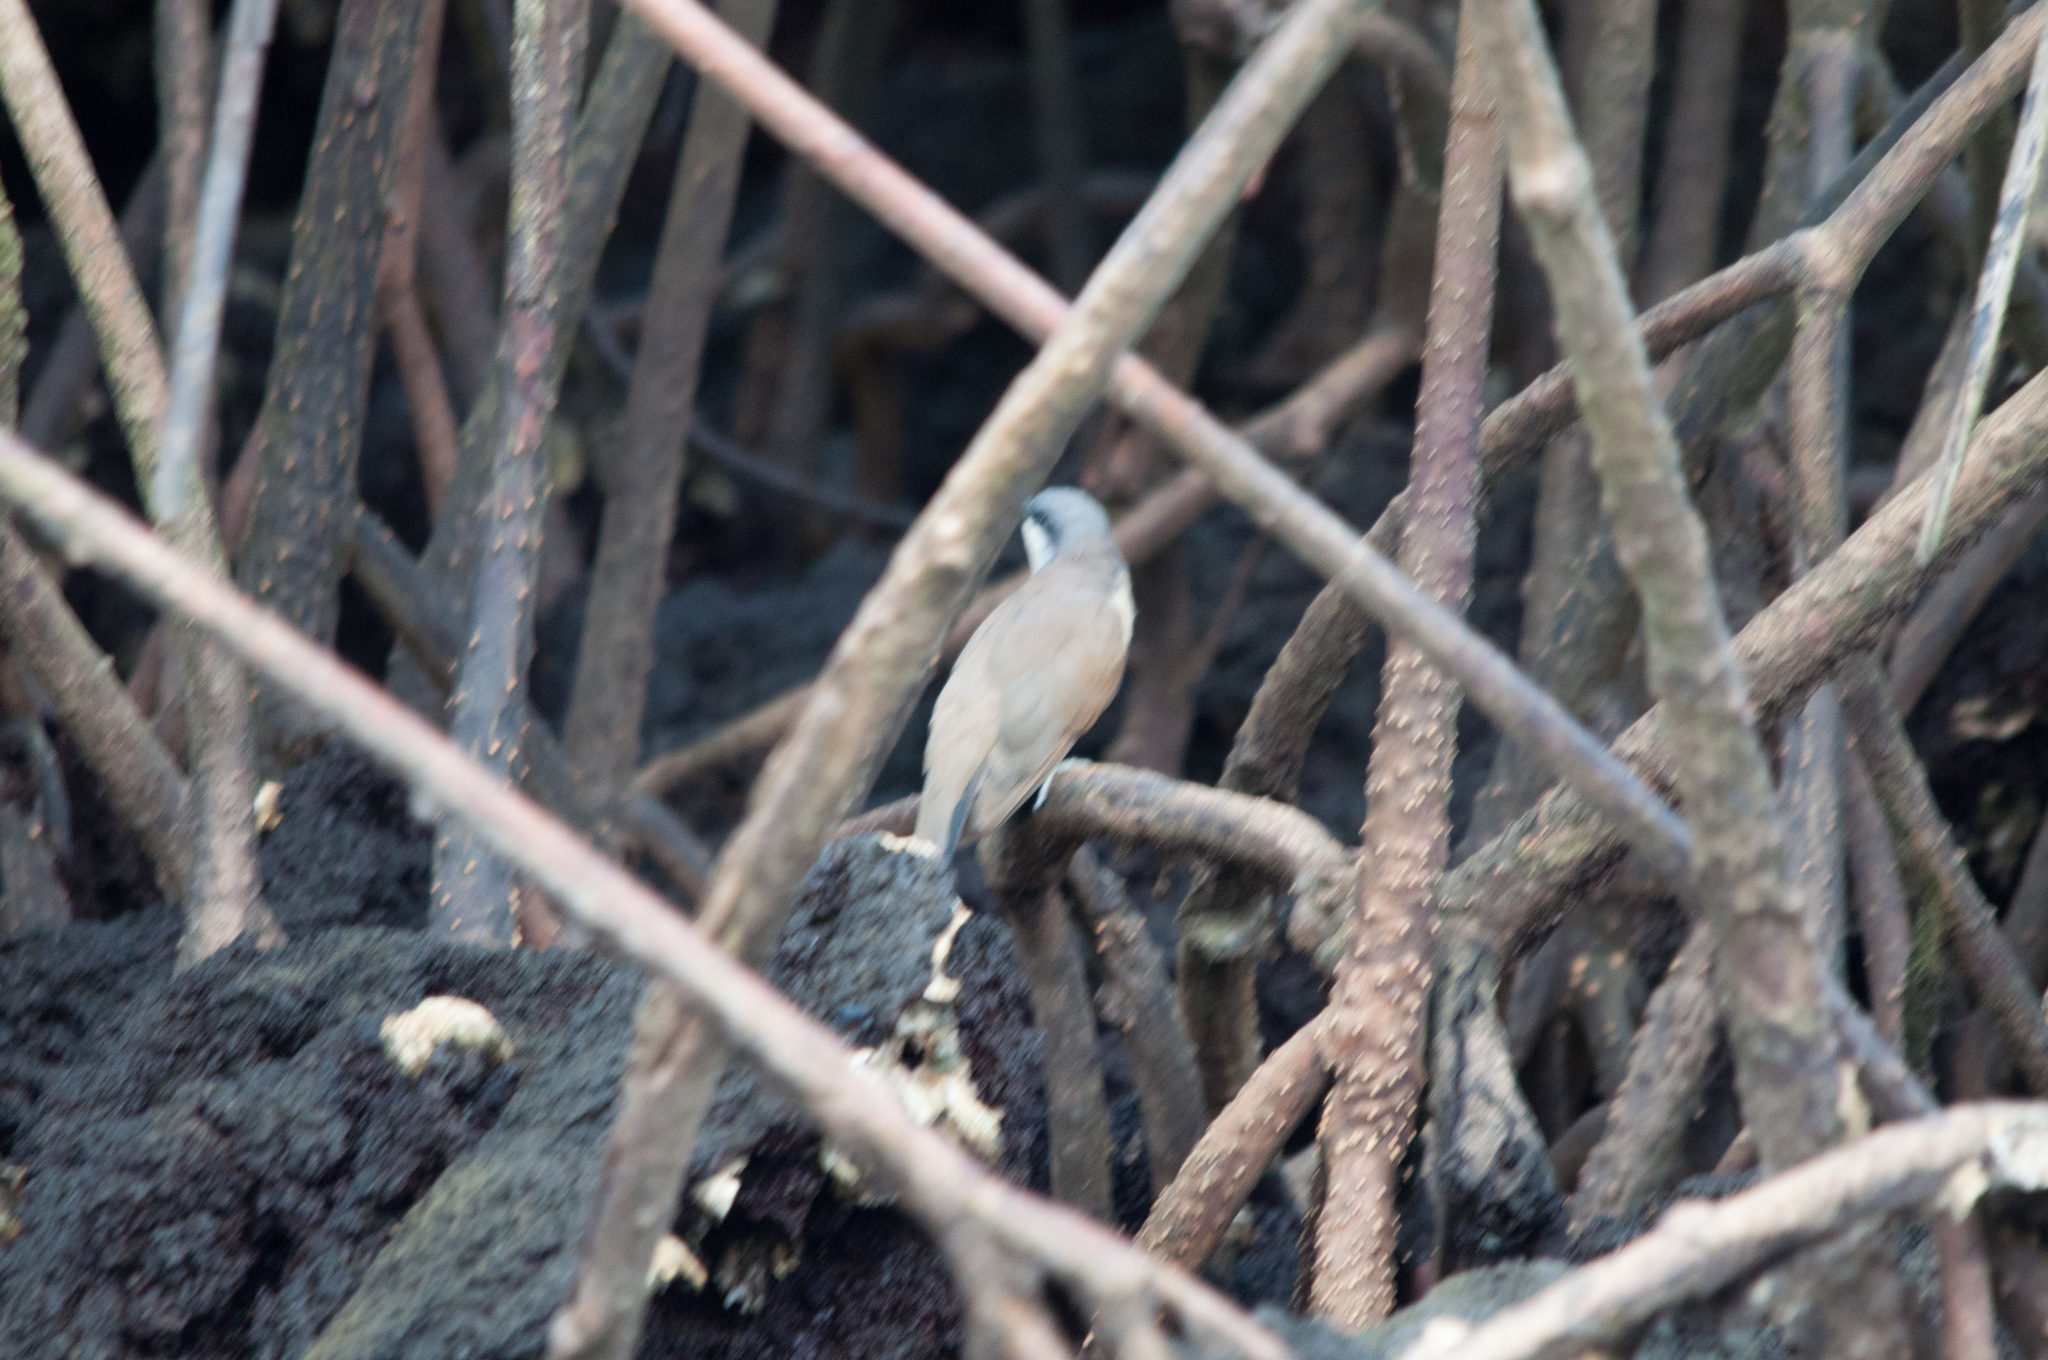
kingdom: Animalia
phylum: Chordata
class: Aves
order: Cuculiformes
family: Cuculidae
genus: Coccyzus
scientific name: Coccyzus melacoryphus
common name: Dark-billed cuckoo
